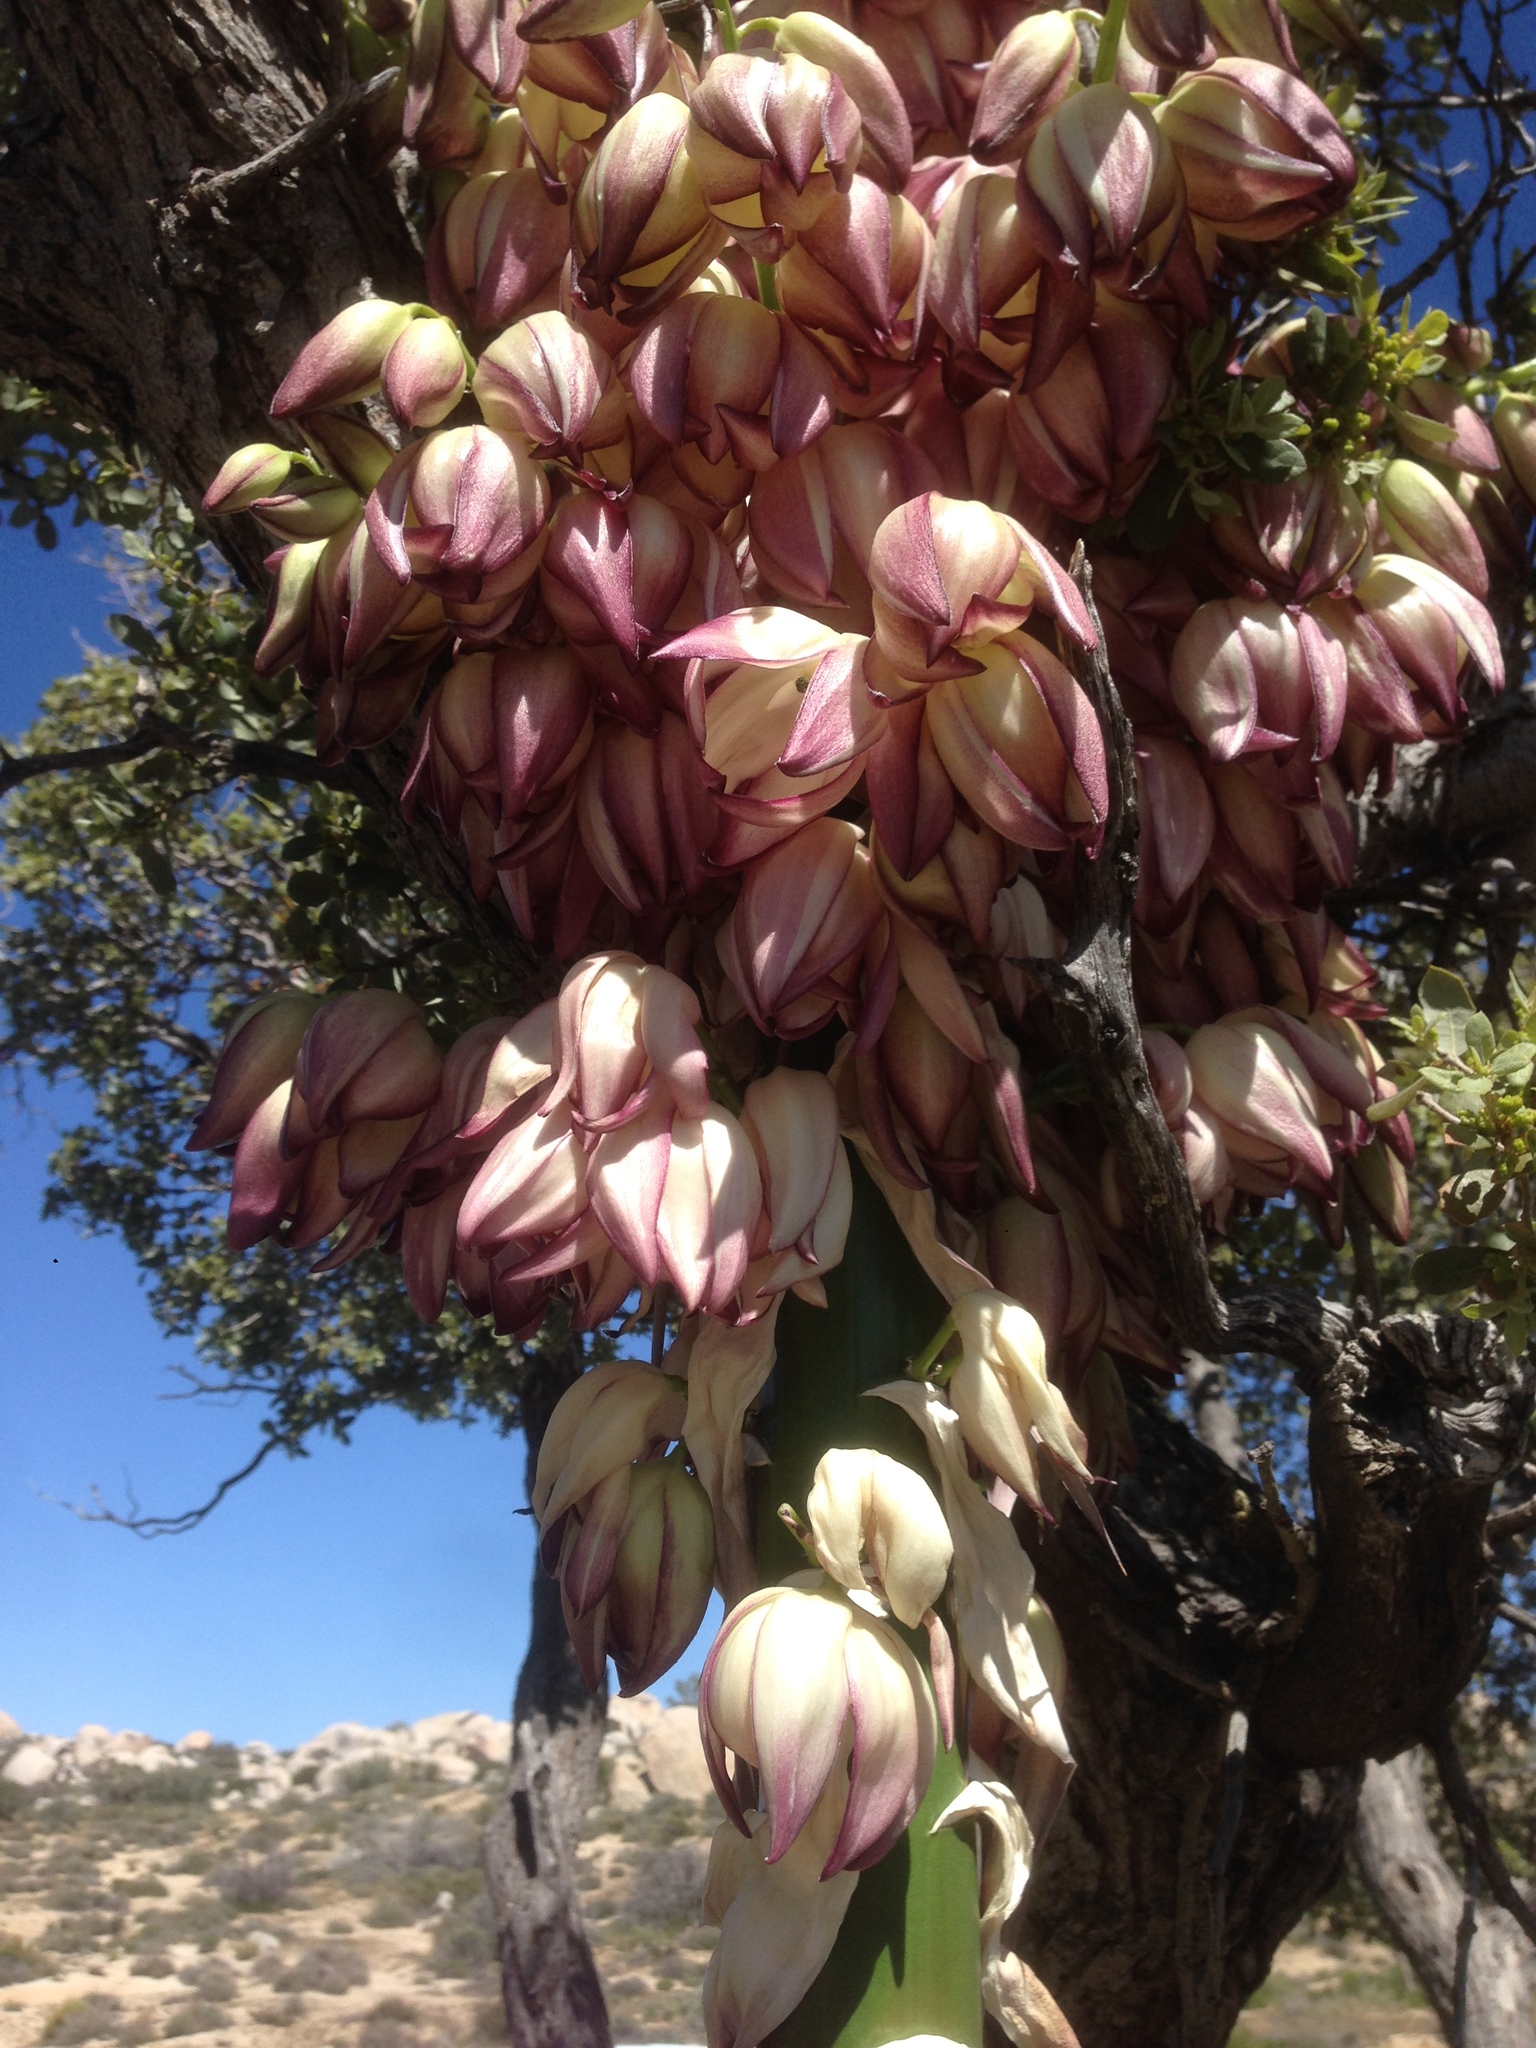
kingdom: Plantae
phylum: Tracheophyta
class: Liliopsida
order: Asparagales
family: Asparagaceae
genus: Hesperoyucca
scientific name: Hesperoyucca whipplei
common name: Our lord's-candle
